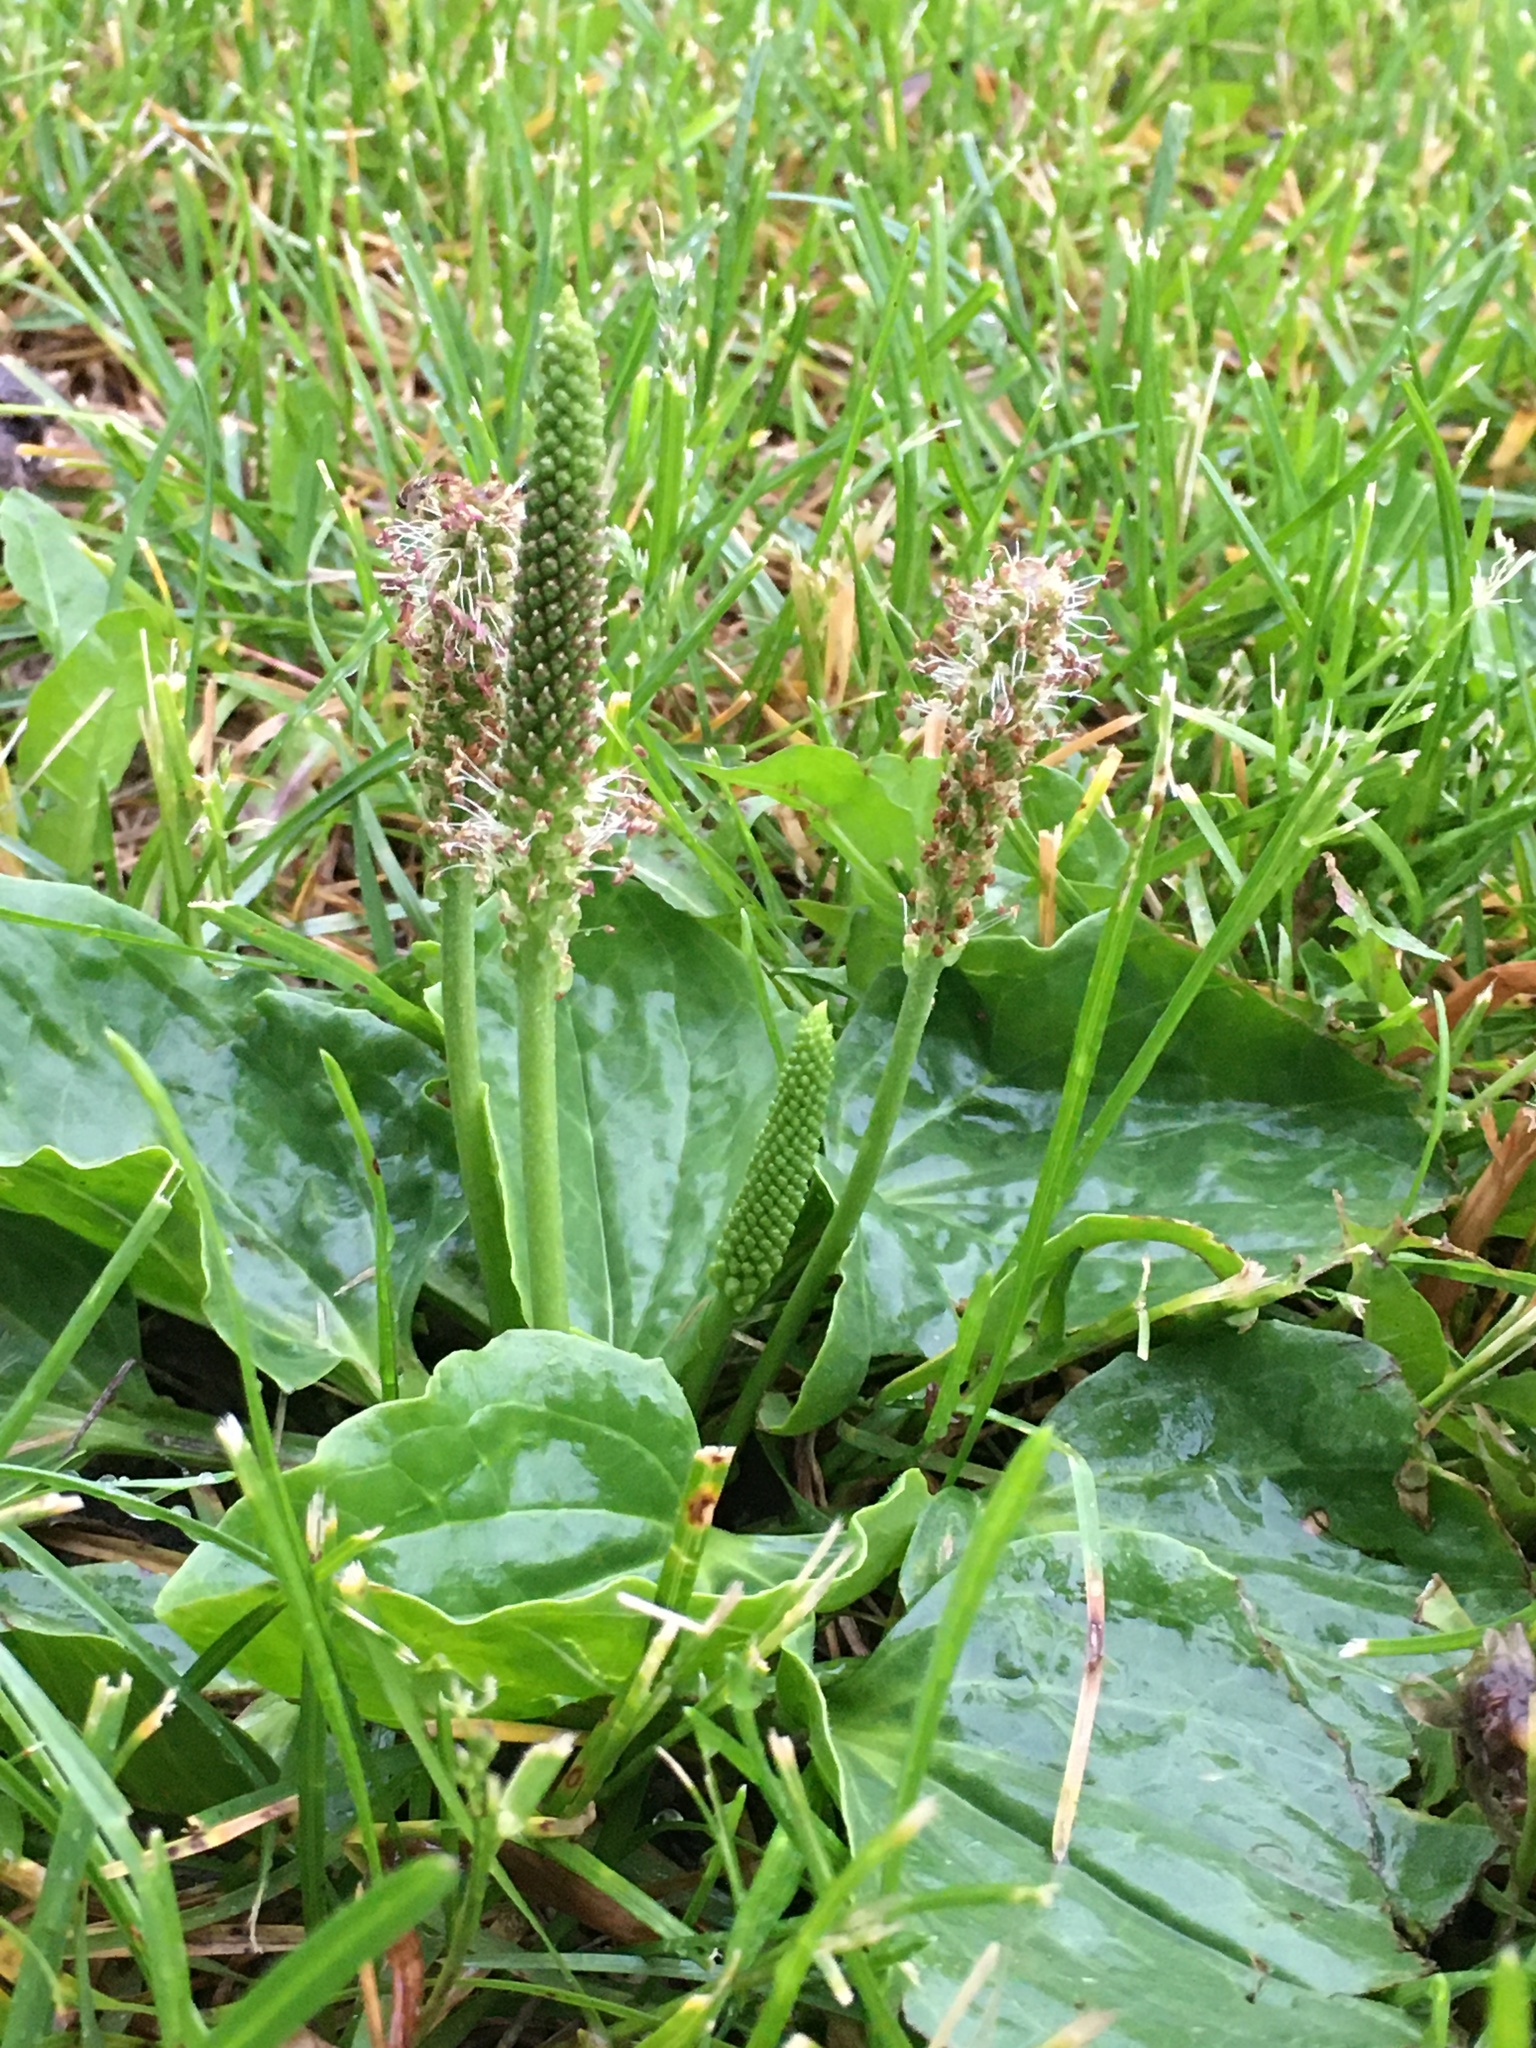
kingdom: Plantae
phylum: Tracheophyta
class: Magnoliopsida
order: Lamiales
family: Plantaginaceae
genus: Plantago
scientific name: Plantago major
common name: Common plantain
